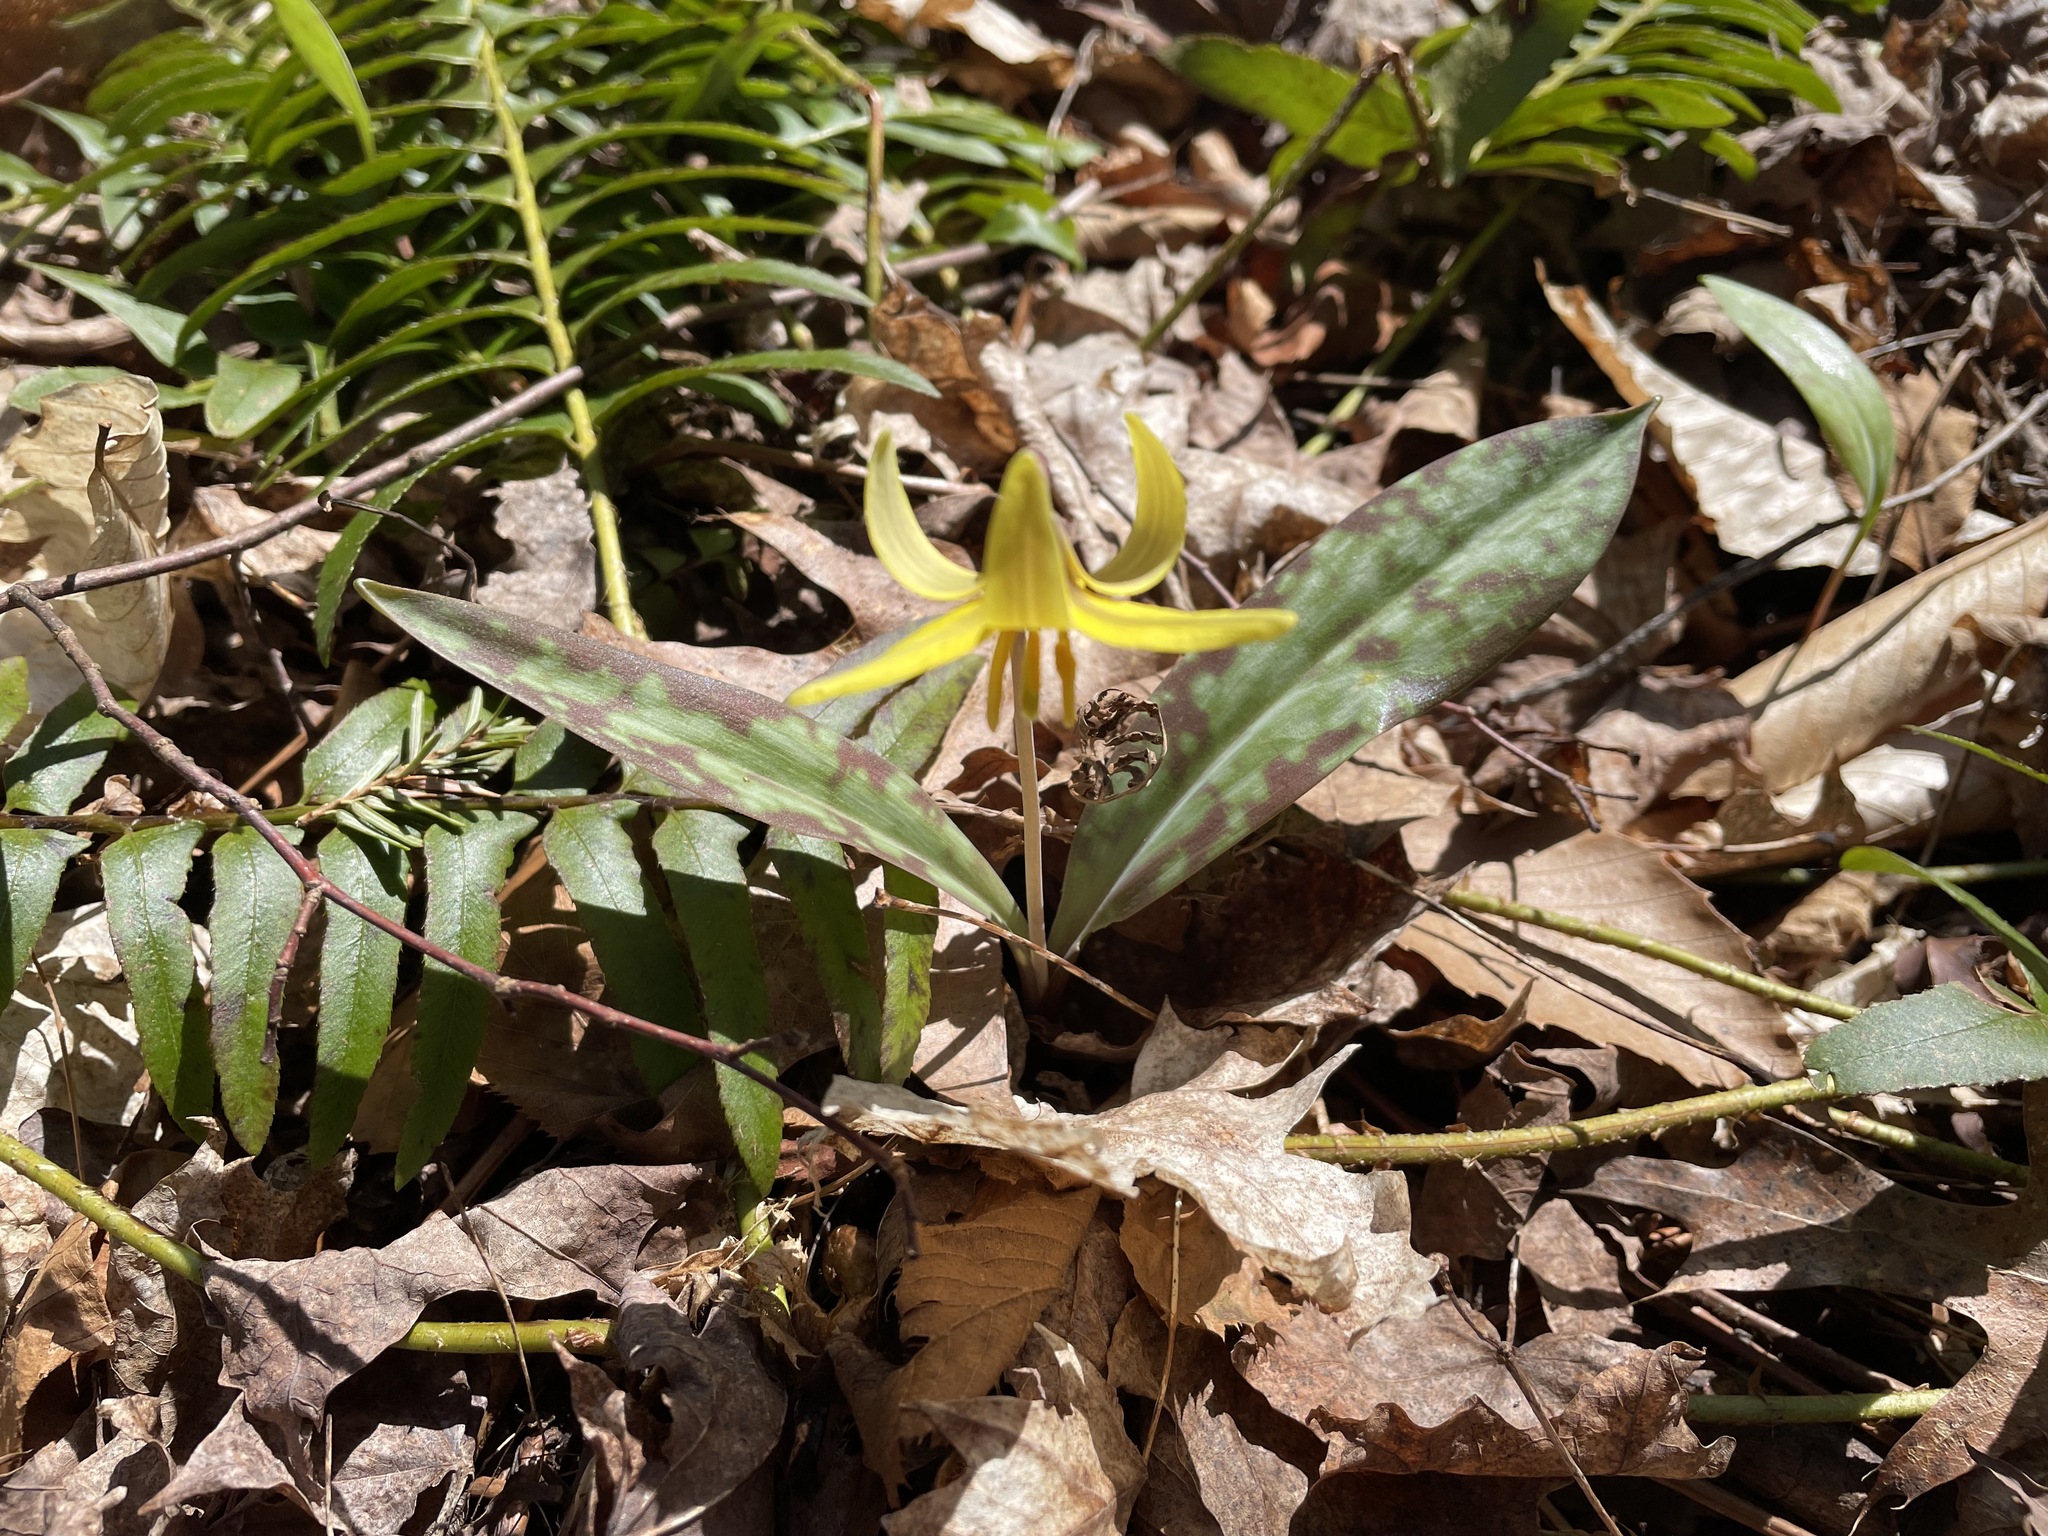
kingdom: Plantae
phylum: Tracheophyta
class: Liliopsida
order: Liliales
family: Liliaceae
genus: Erythronium
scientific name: Erythronium americanum
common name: Yellow adder's-tongue
